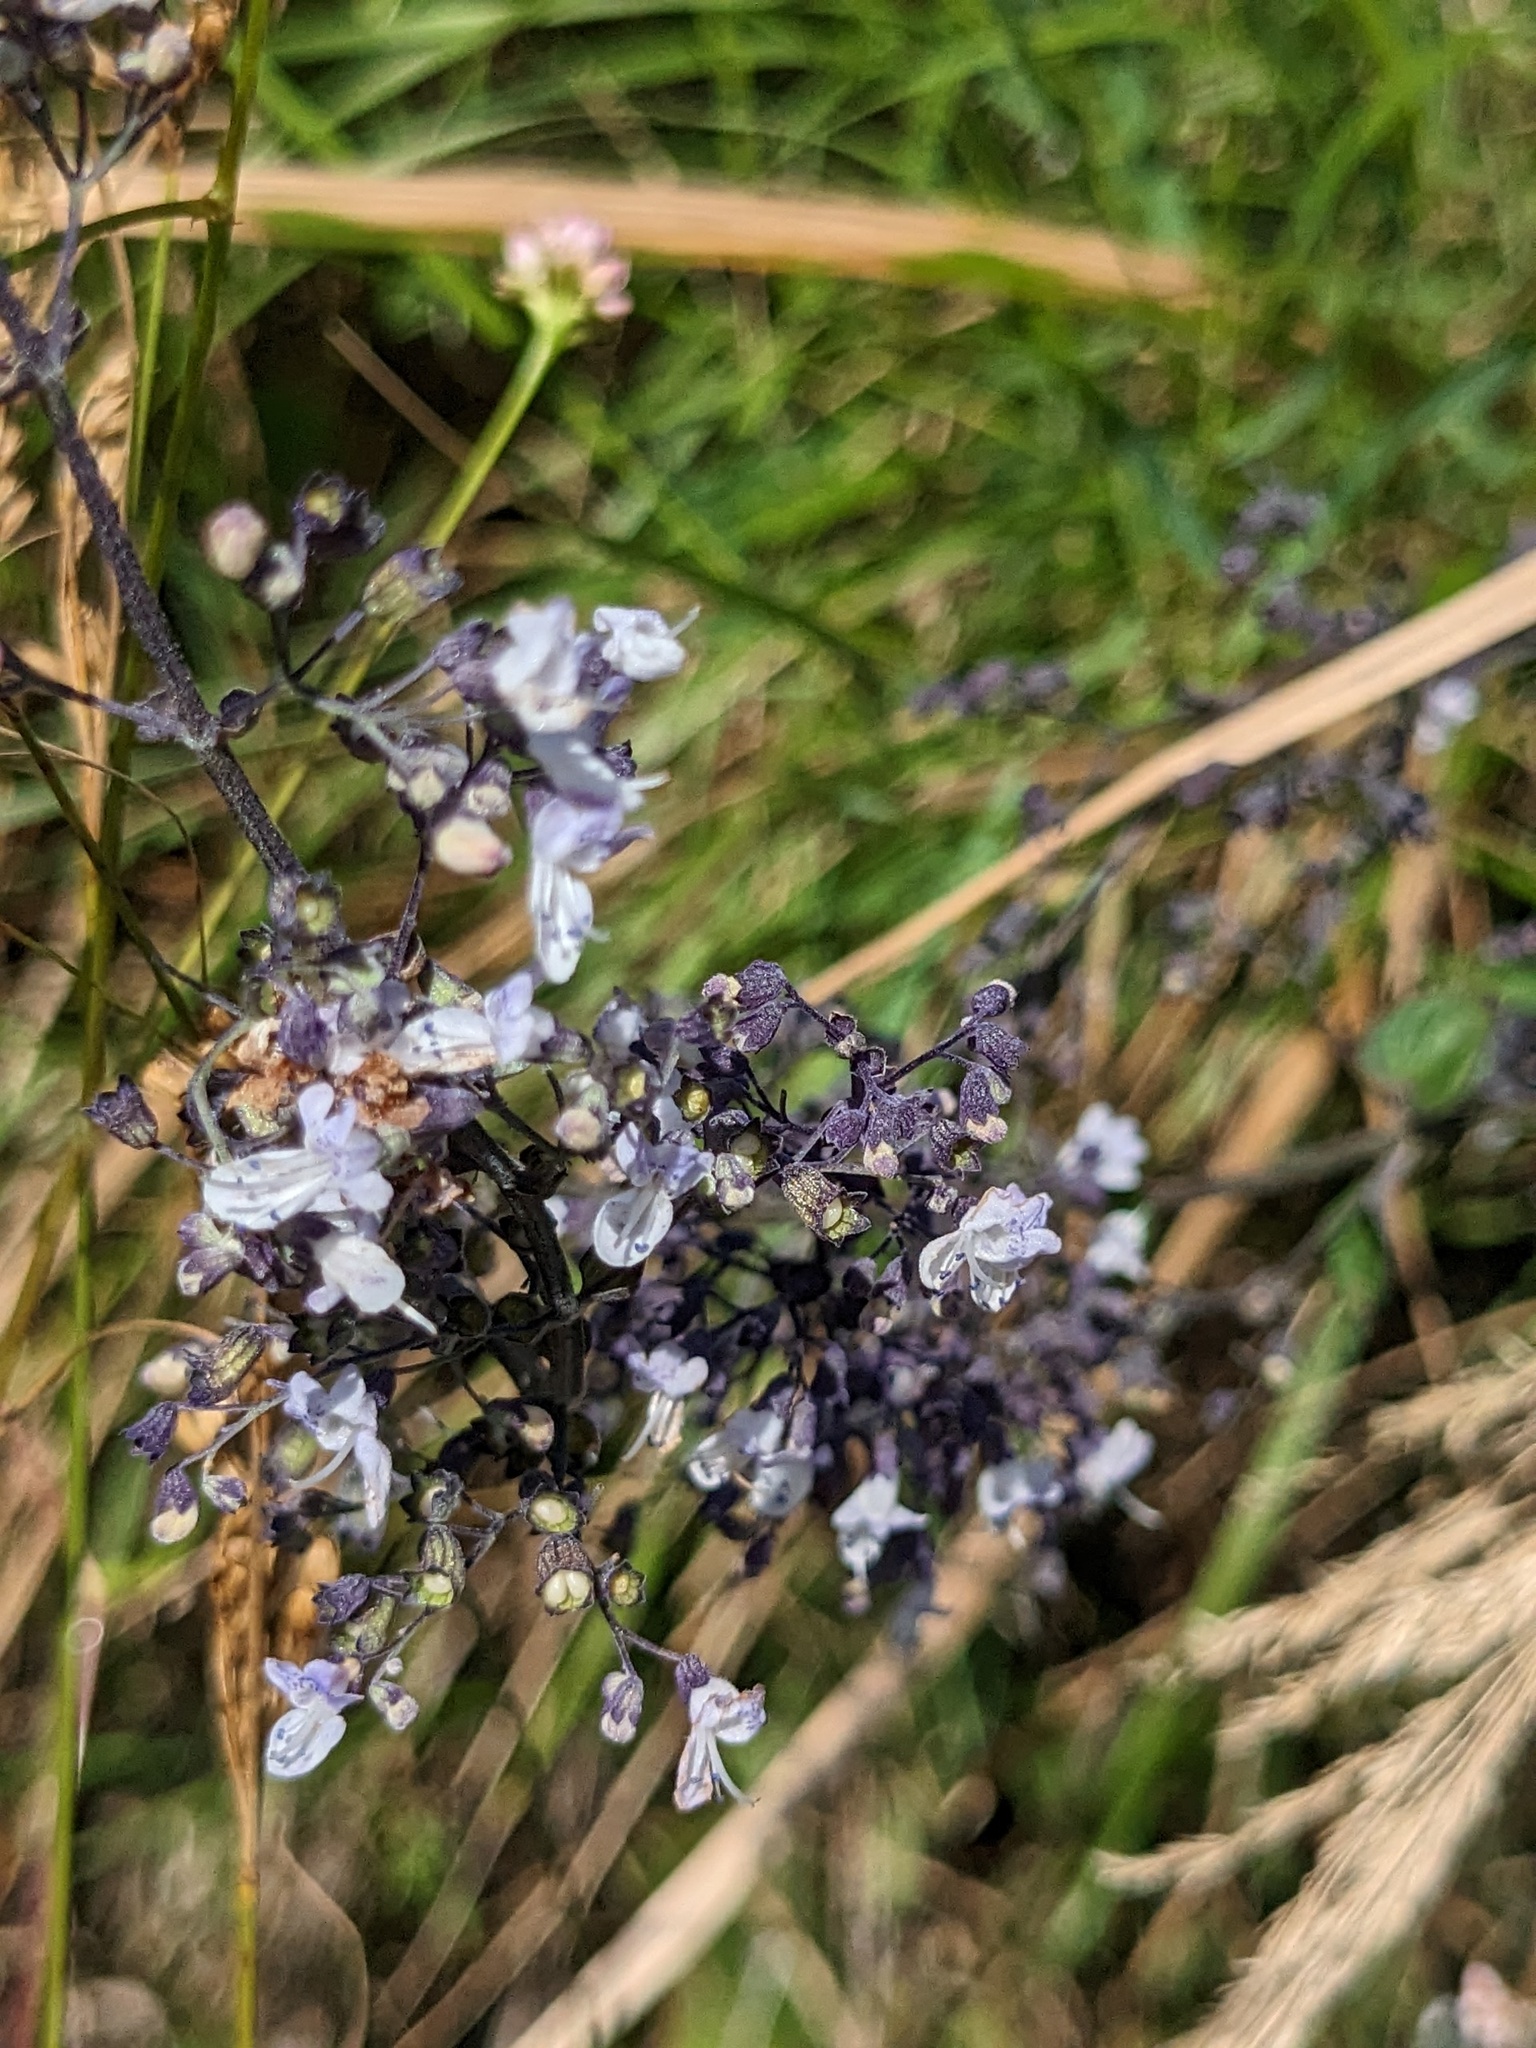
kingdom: Plantae
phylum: Tracheophyta
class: Magnoliopsida
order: Lamiales
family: Lamiaceae
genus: Isodon
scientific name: Isodon japonicus
